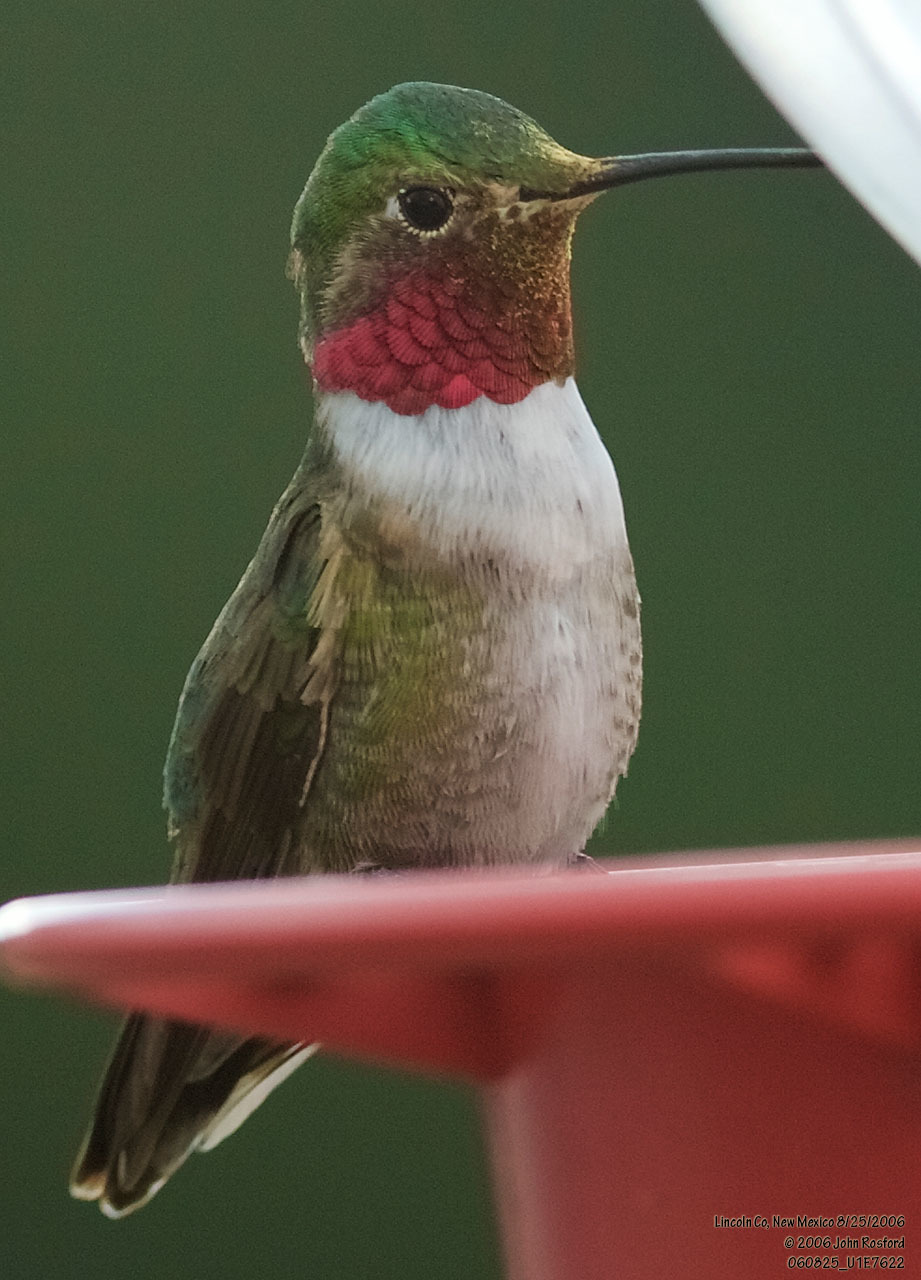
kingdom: Animalia
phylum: Chordata
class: Aves
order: Apodiformes
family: Trochilidae
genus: Selasphorus
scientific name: Selasphorus platycercus
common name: Broad-tailed hummingbird
